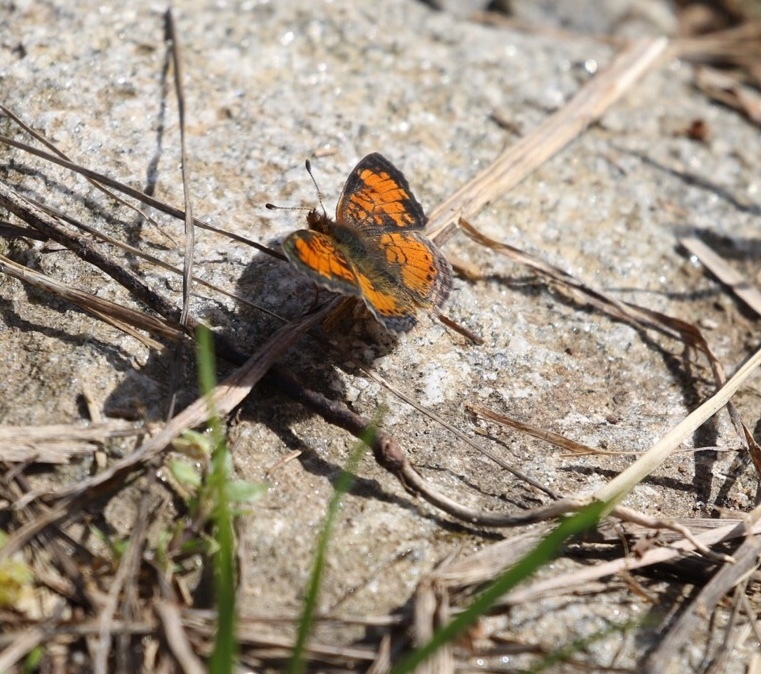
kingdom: Animalia
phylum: Arthropoda
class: Insecta
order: Lepidoptera
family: Nymphalidae
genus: Phyciodes
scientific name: Phyciodes tharos
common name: Pearl crescent
